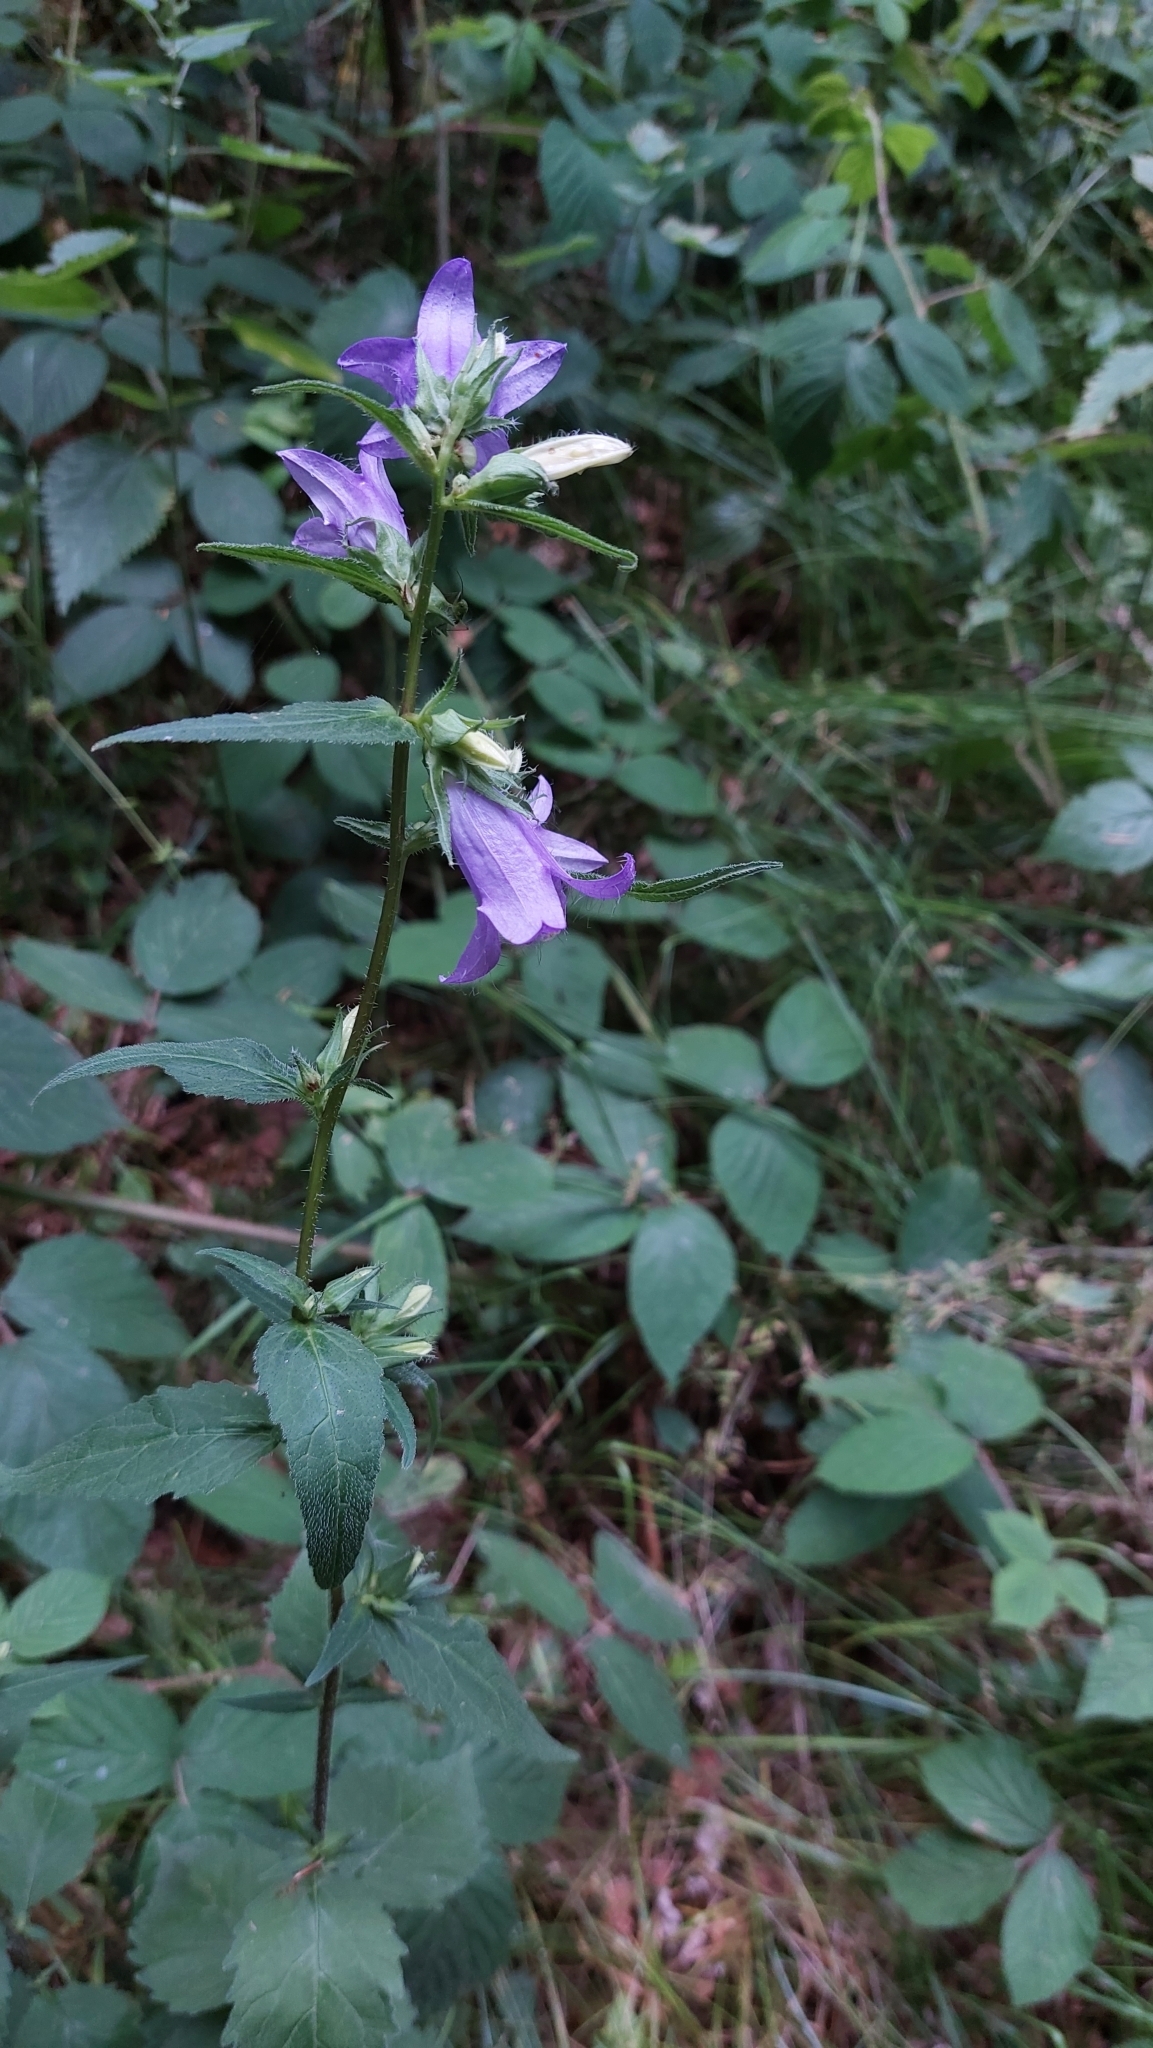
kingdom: Plantae
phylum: Tracheophyta
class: Magnoliopsida
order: Asterales
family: Campanulaceae
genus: Campanula
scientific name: Campanula trachelium
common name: Nettle-leaved bellflower
